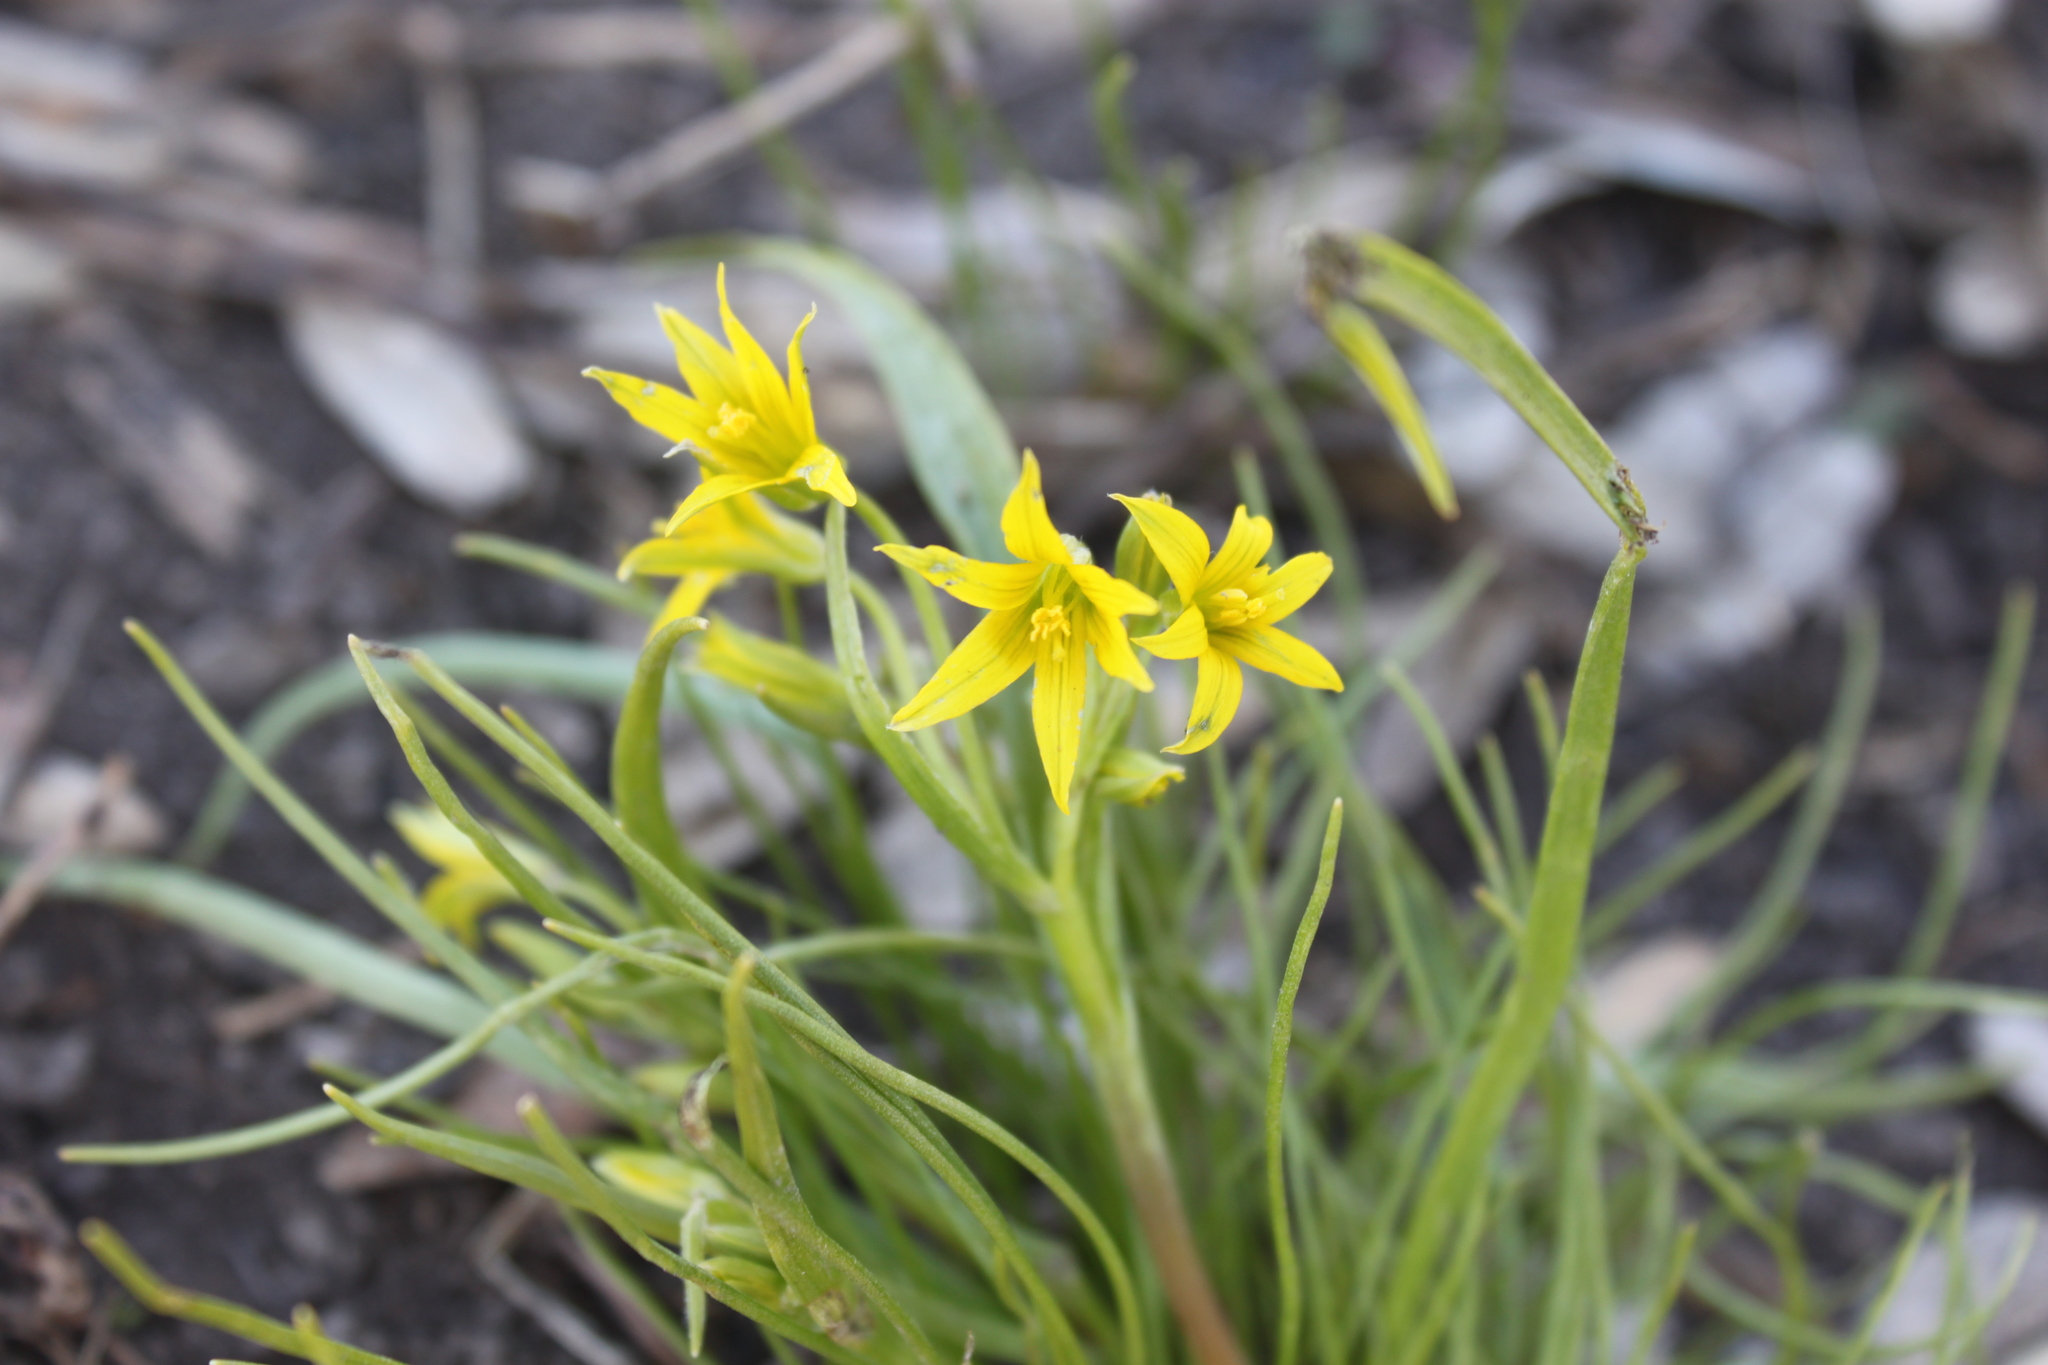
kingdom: Plantae
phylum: Tracheophyta
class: Liliopsida
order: Liliales
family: Liliaceae
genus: Gagea
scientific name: Gagea minima
